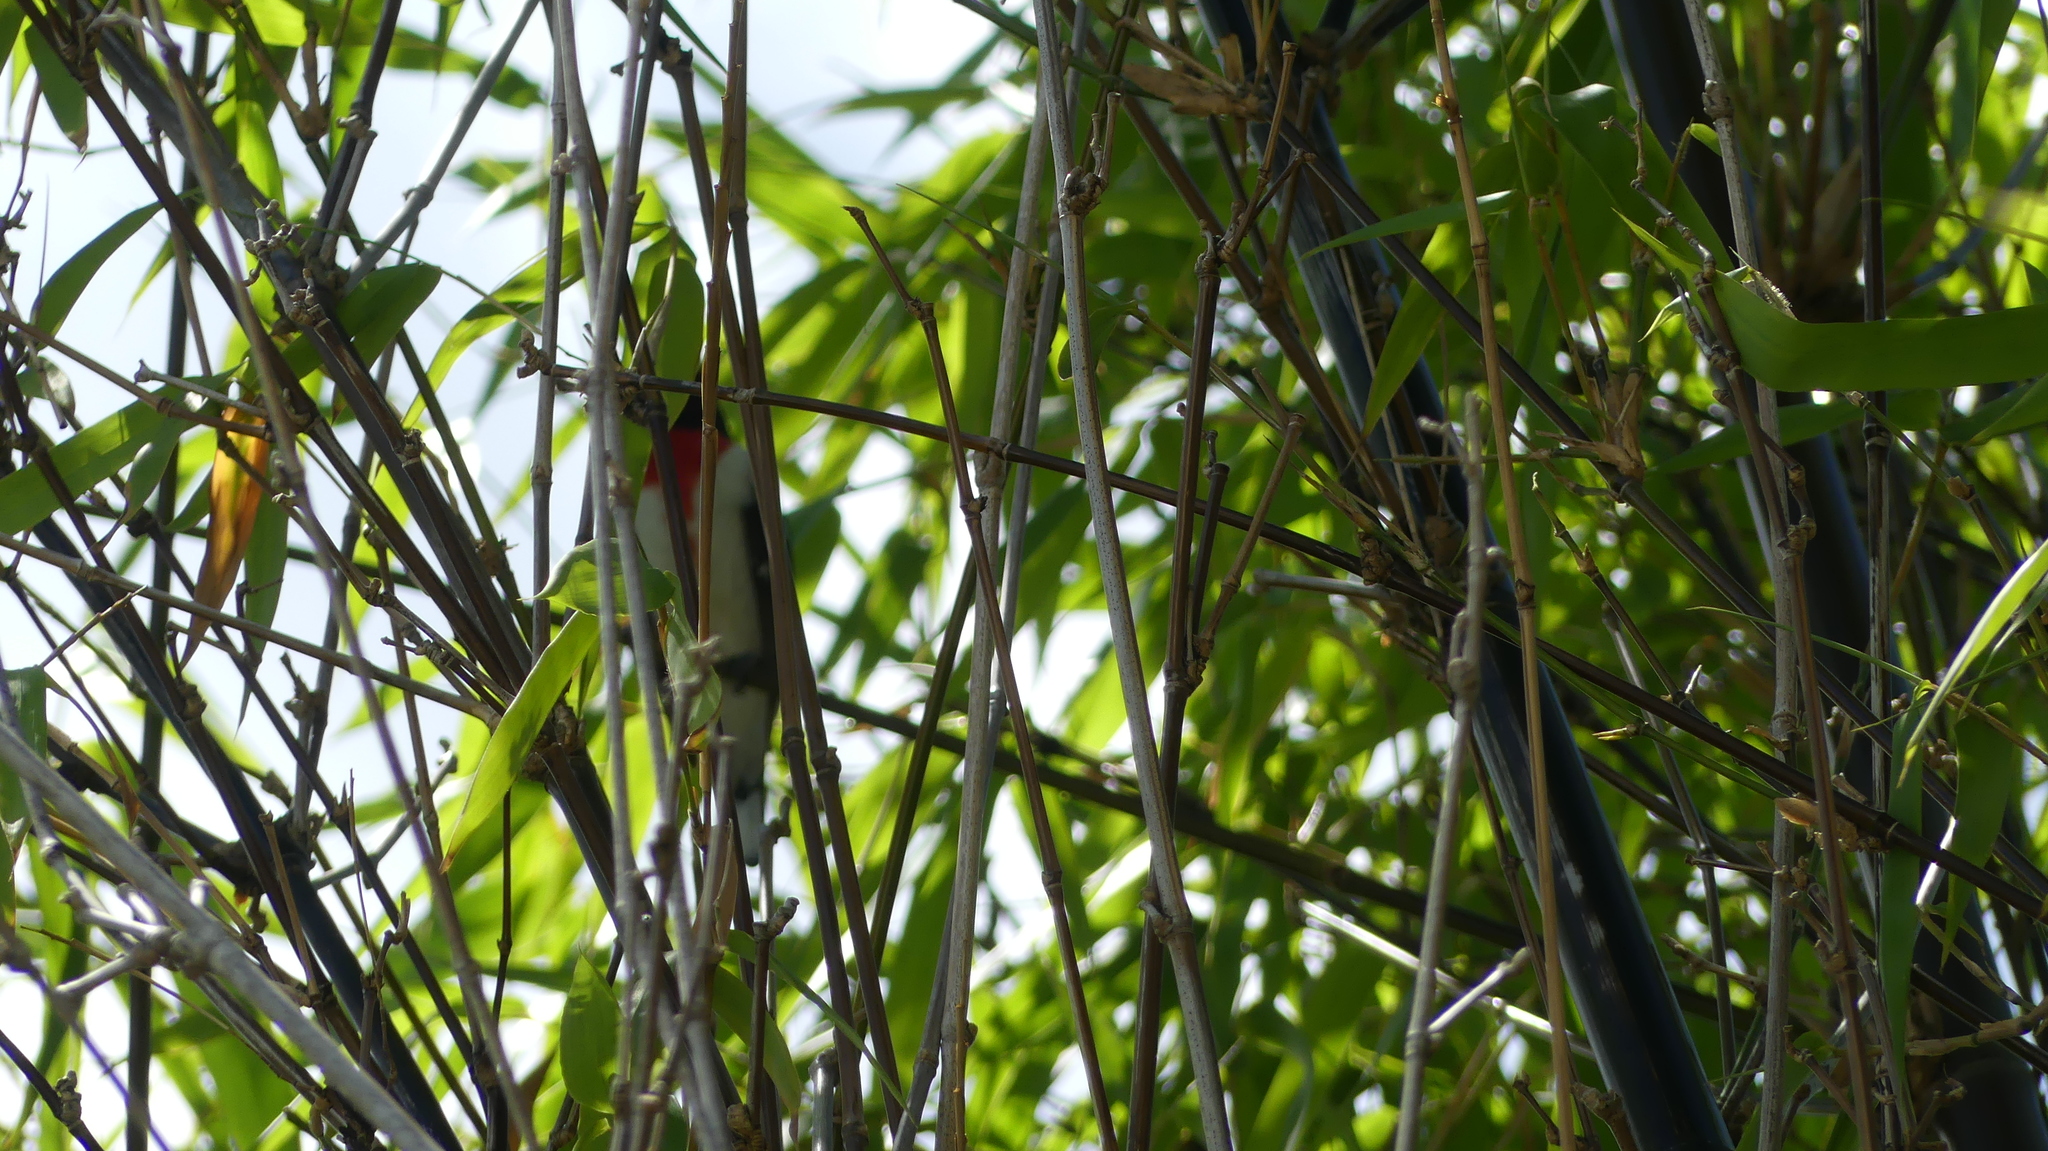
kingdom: Animalia
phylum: Chordata
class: Aves
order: Passeriformes
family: Cardinalidae
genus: Pheucticus
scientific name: Pheucticus ludovicianus
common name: Rose-breasted grosbeak
